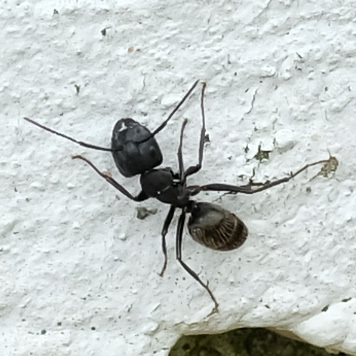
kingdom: Animalia
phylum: Arthropoda
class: Insecta
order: Hymenoptera
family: Formicidae
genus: Camponotus
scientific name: Camponotus pennsylvanicus
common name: Black carpenter ant
